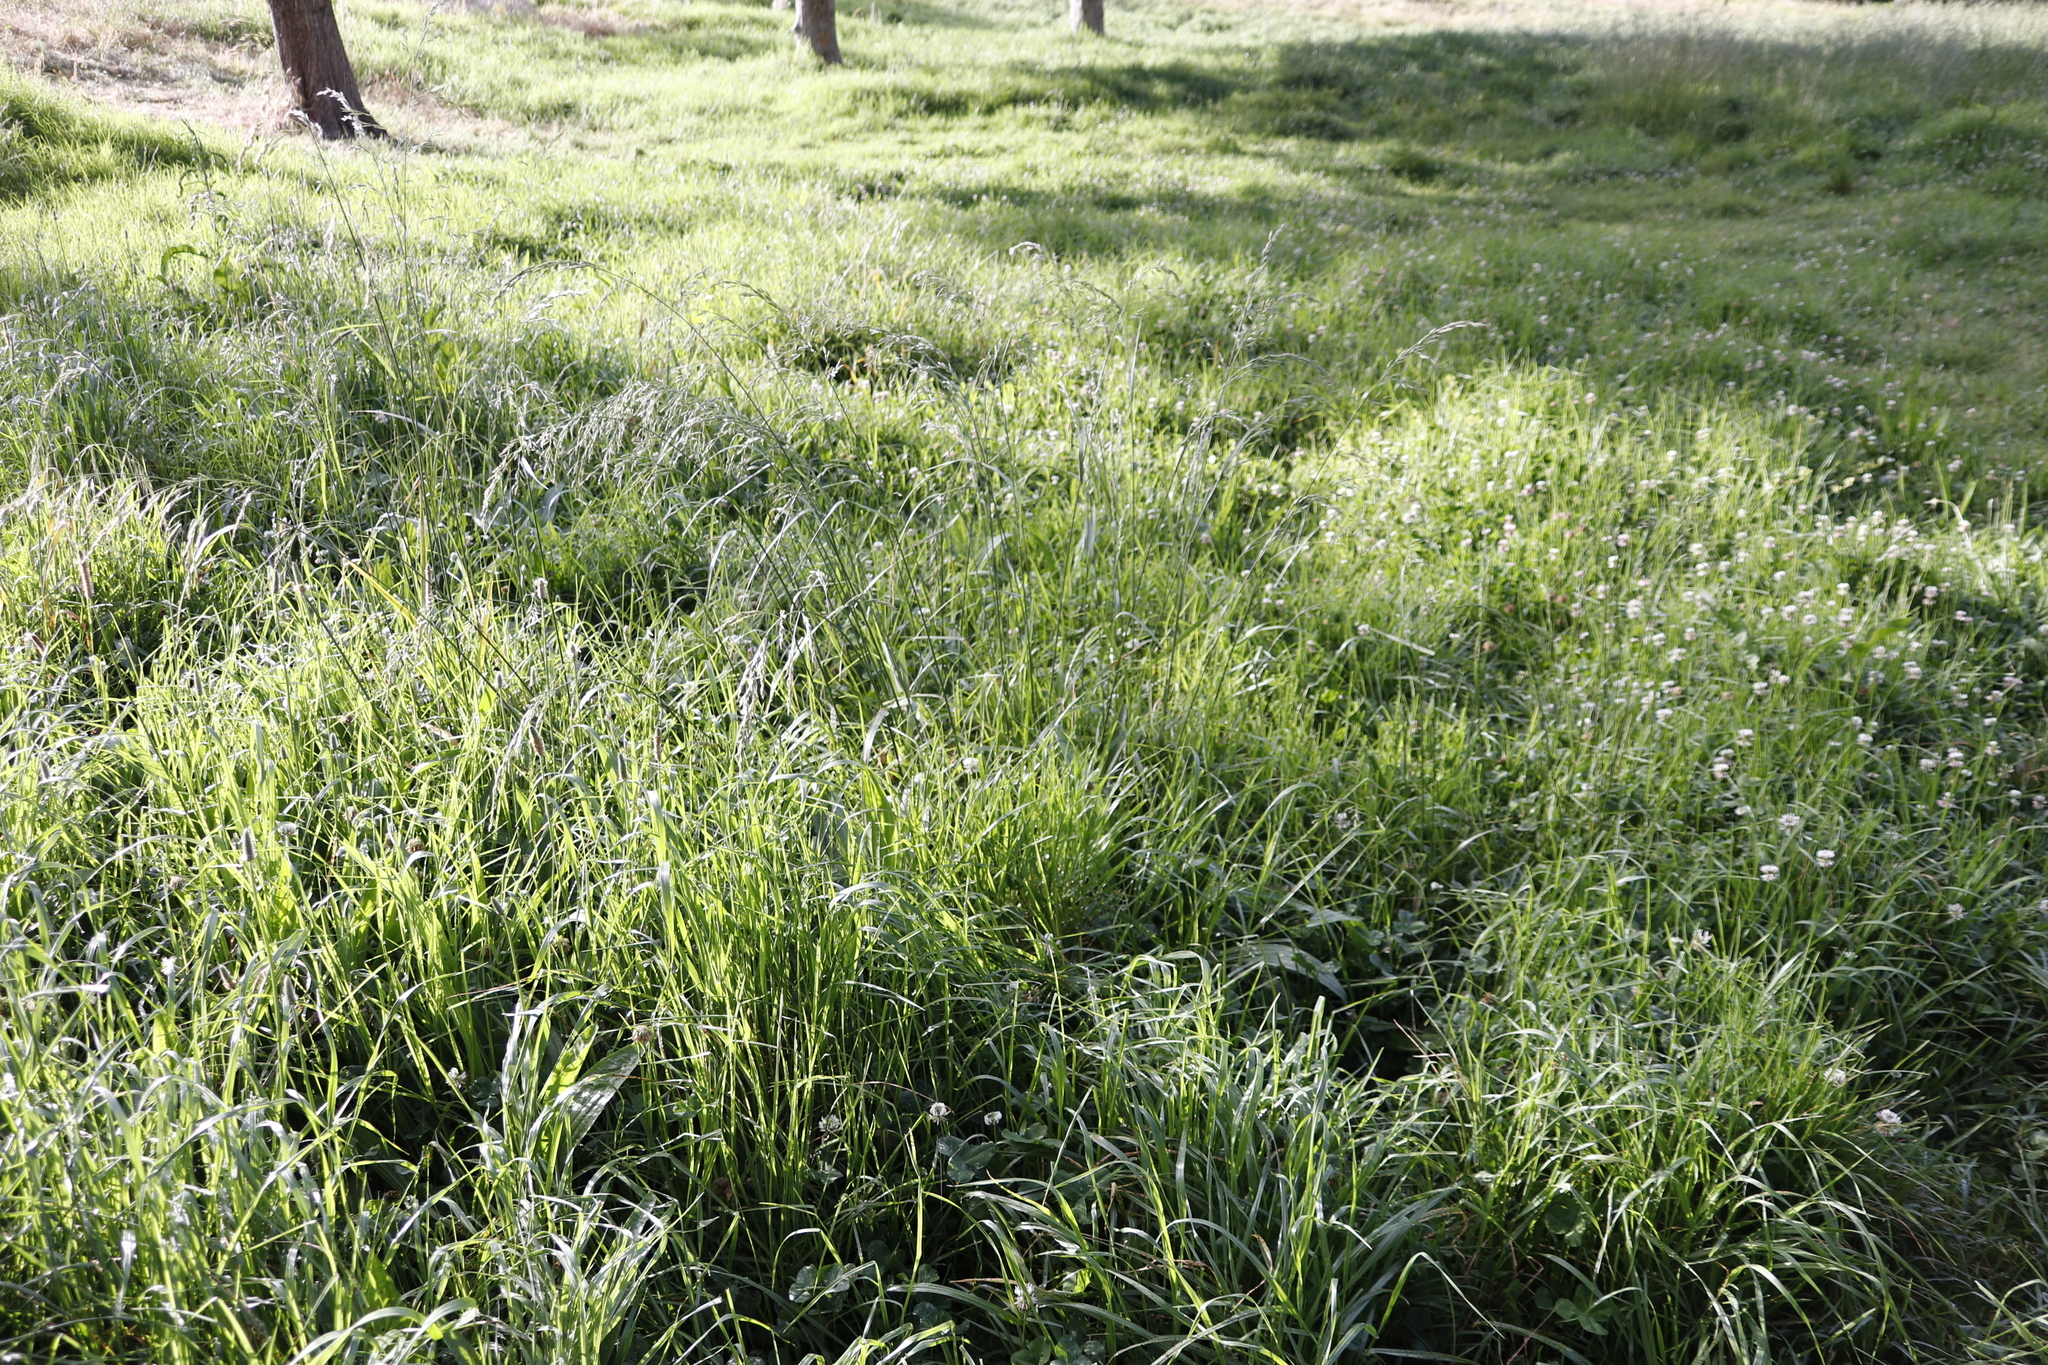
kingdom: Plantae
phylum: Tracheophyta
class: Liliopsida
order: Poales
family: Poaceae
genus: Avena
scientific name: Avena fatua
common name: Wild oat
